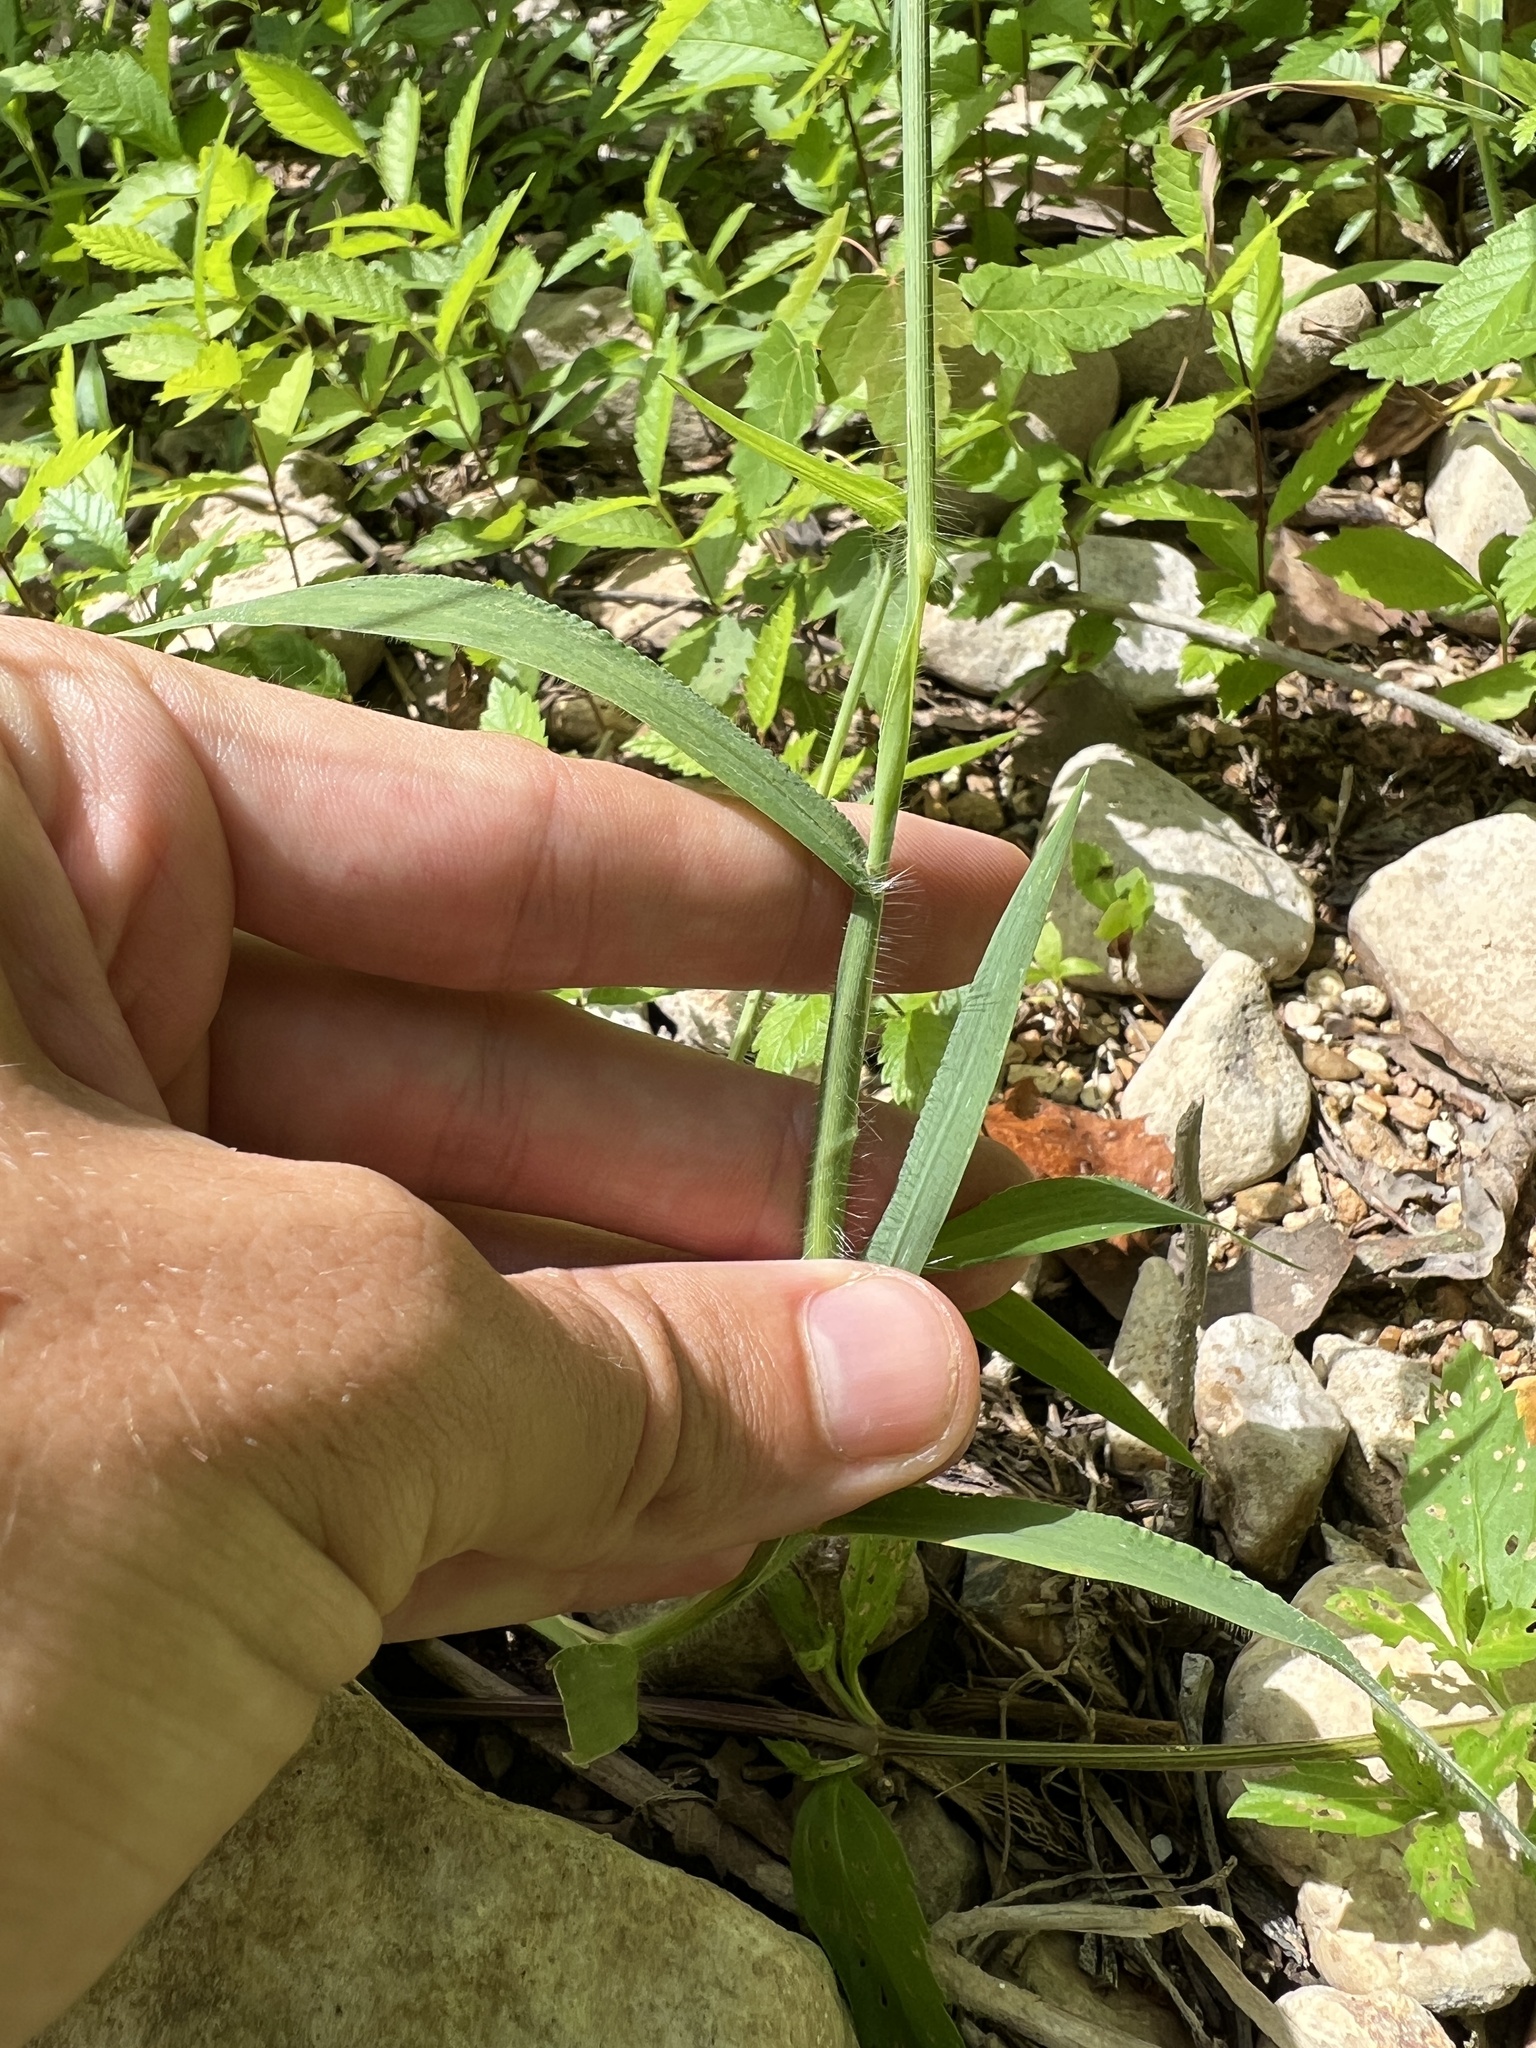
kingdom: Plantae
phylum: Tracheophyta
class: Liliopsida
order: Poales
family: Poaceae
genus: Digitaria
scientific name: Digitaria sanguinalis
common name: Hairy crabgrass
